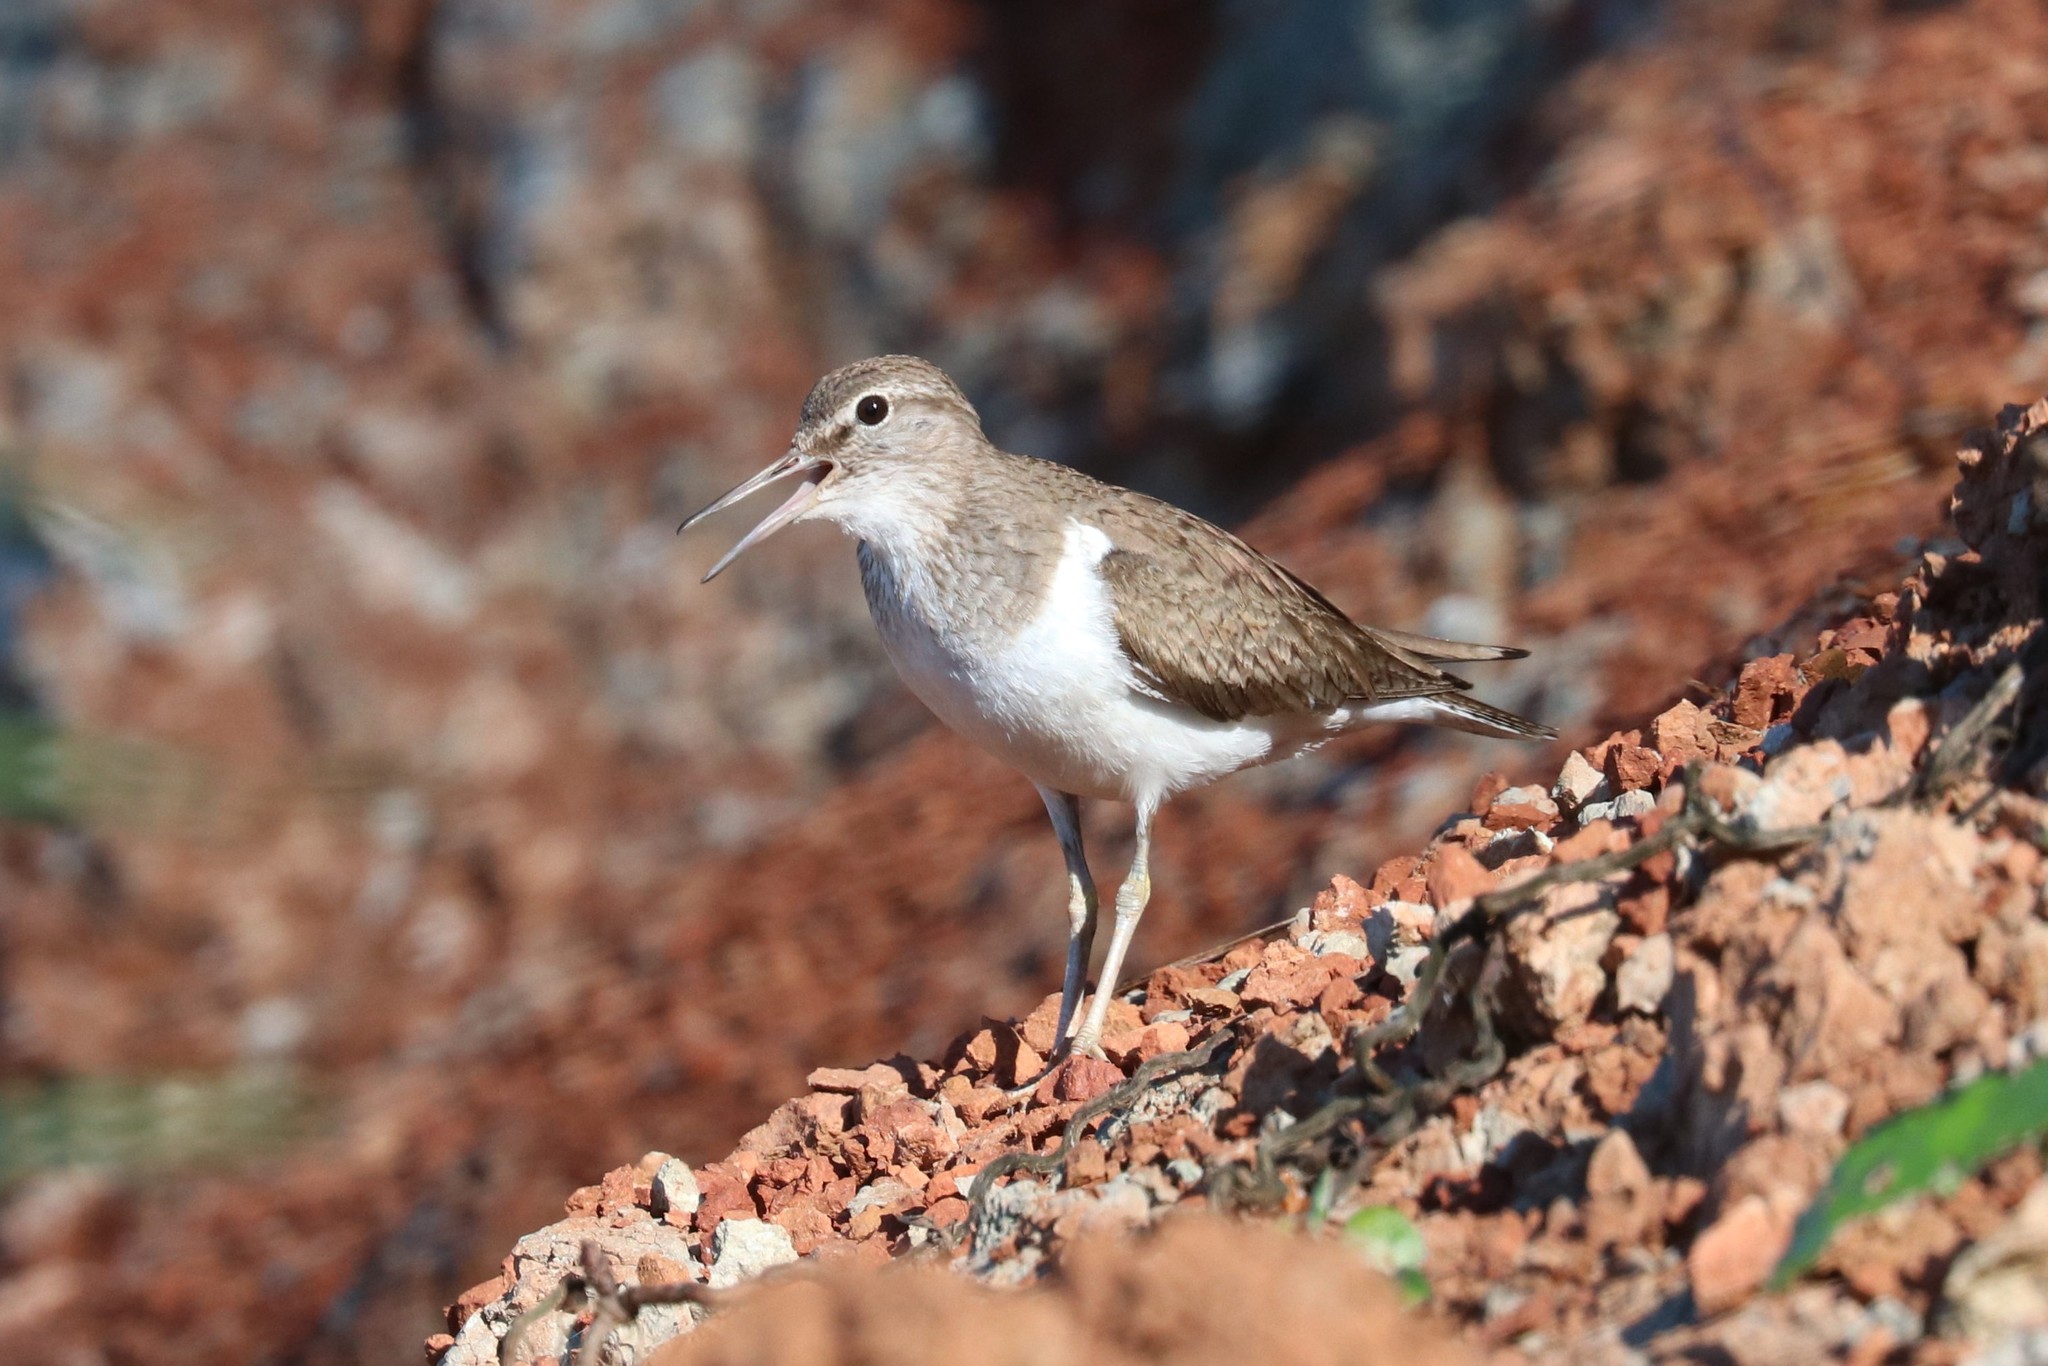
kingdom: Animalia
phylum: Chordata
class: Aves
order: Charadriiformes
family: Scolopacidae
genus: Actitis
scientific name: Actitis hypoleucos
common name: Common sandpiper
